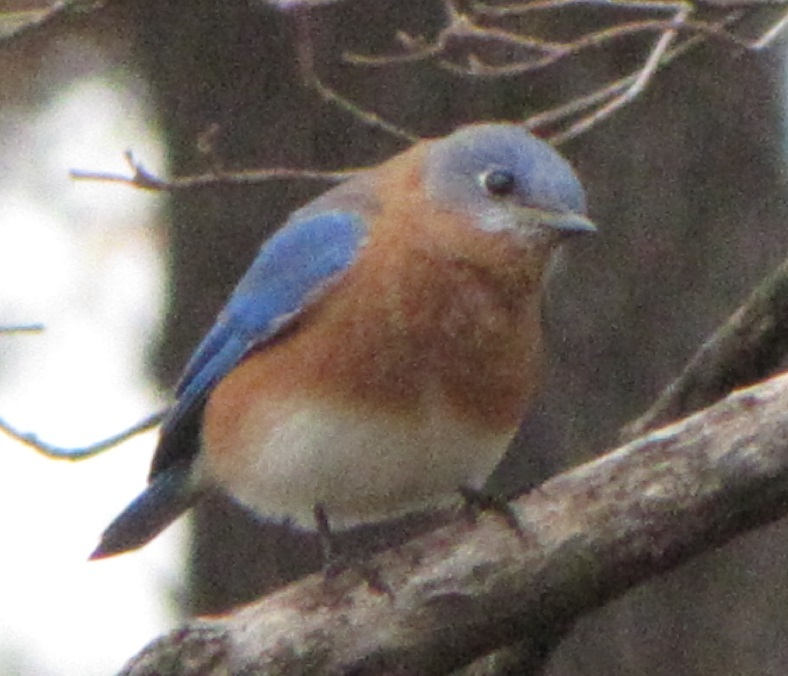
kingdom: Animalia
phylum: Chordata
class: Aves
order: Passeriformes
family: Turdidae
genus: Sialia
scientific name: Sialia sialis
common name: Eastern bluebird
